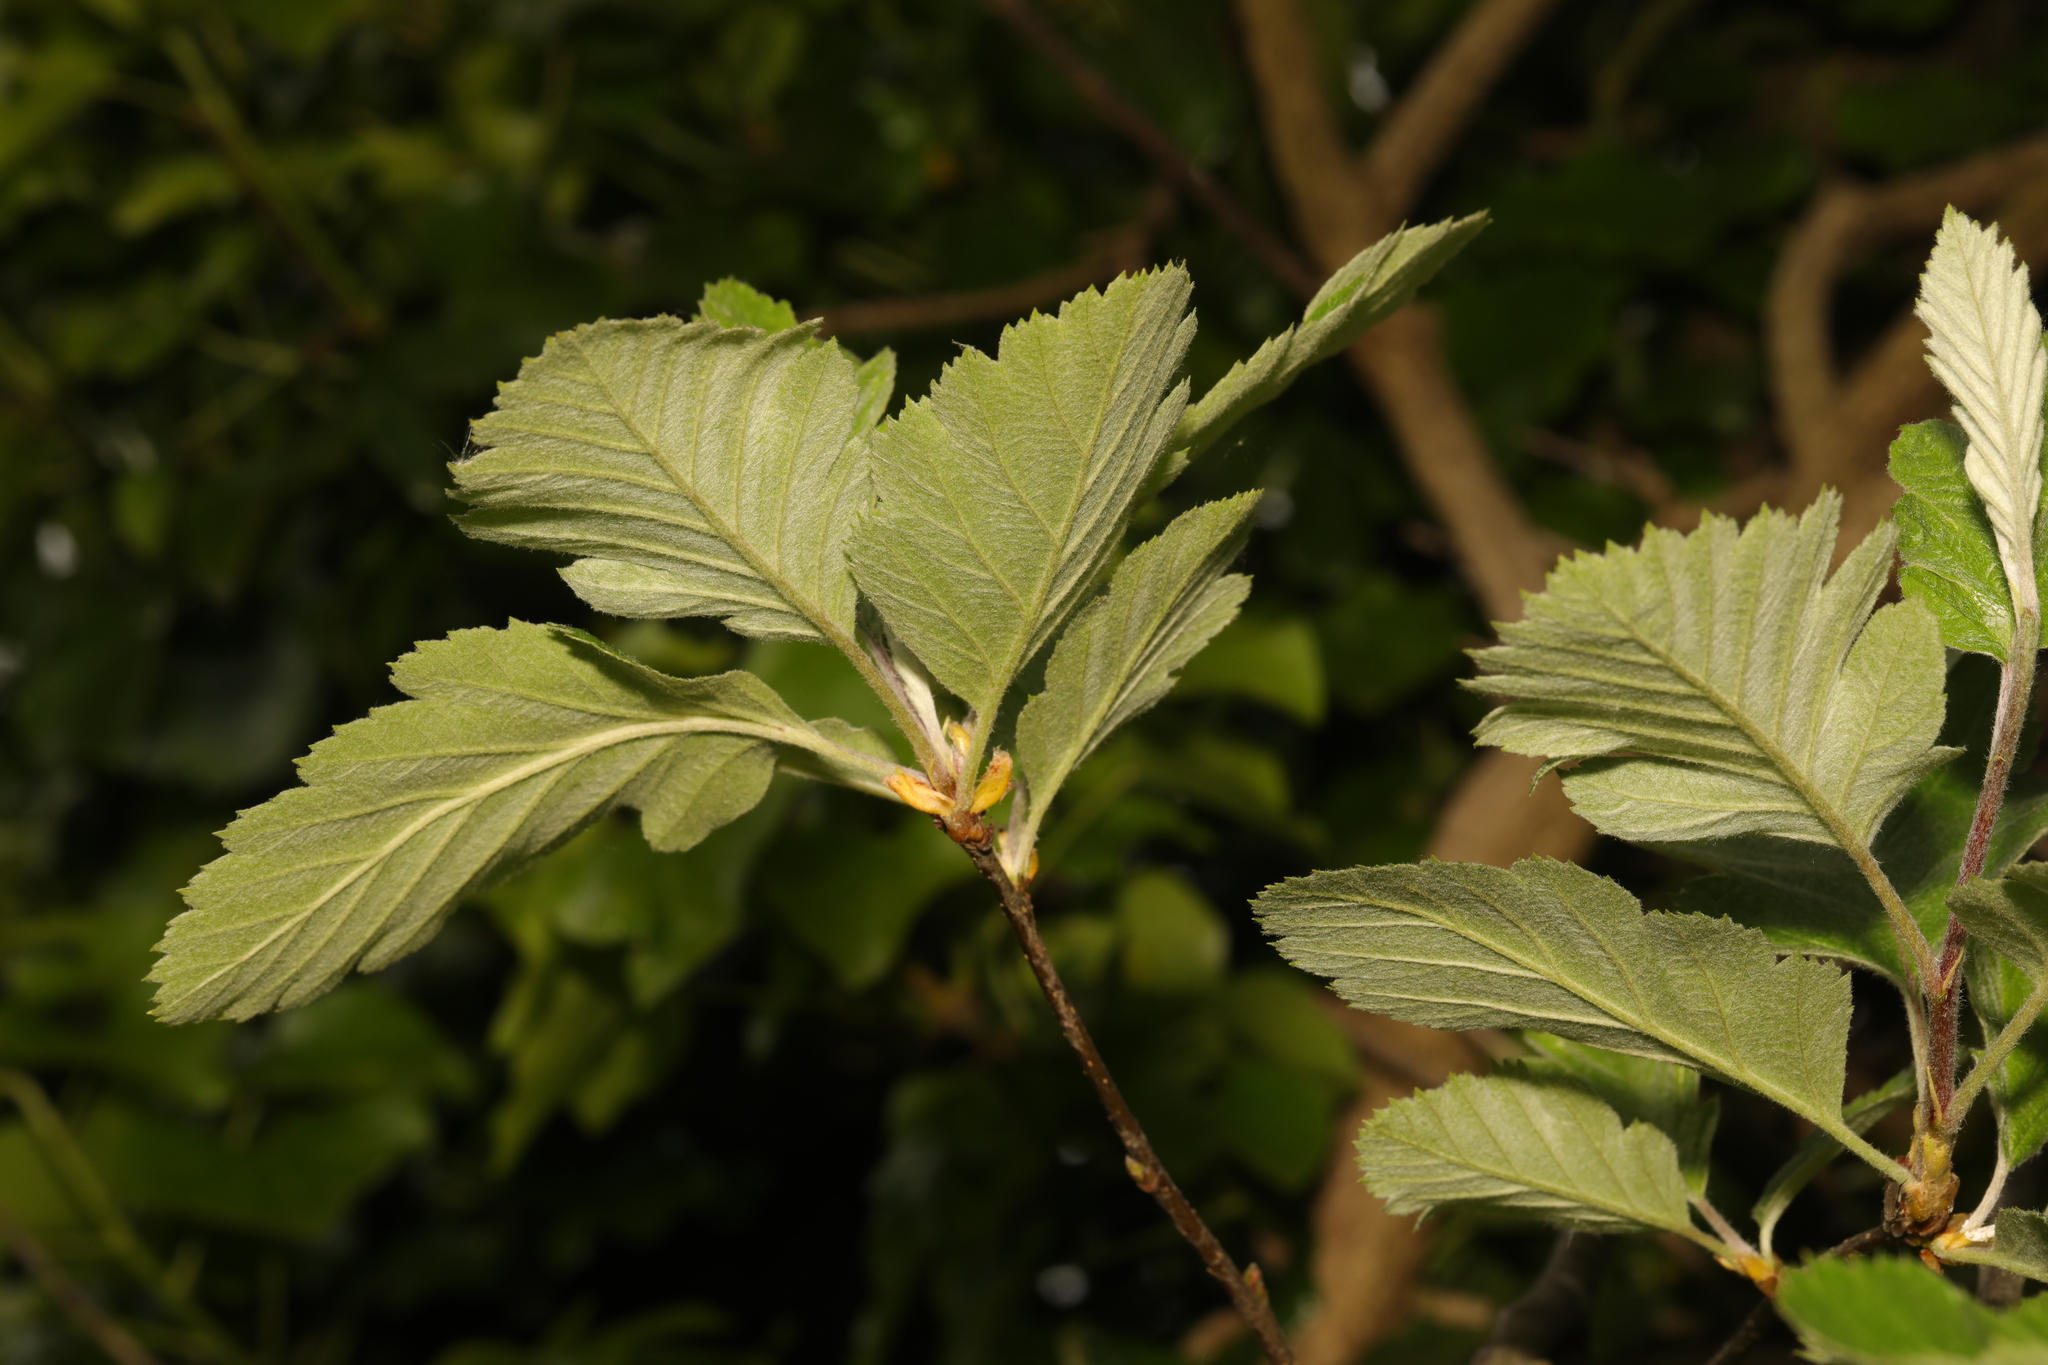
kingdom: Plantae
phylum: Tracheophyta
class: Magnoliopsida
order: Rosales
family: Rosaceae
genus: Scandosorbus
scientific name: Scandosorbus intermedia
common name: Swedish whitebeam
